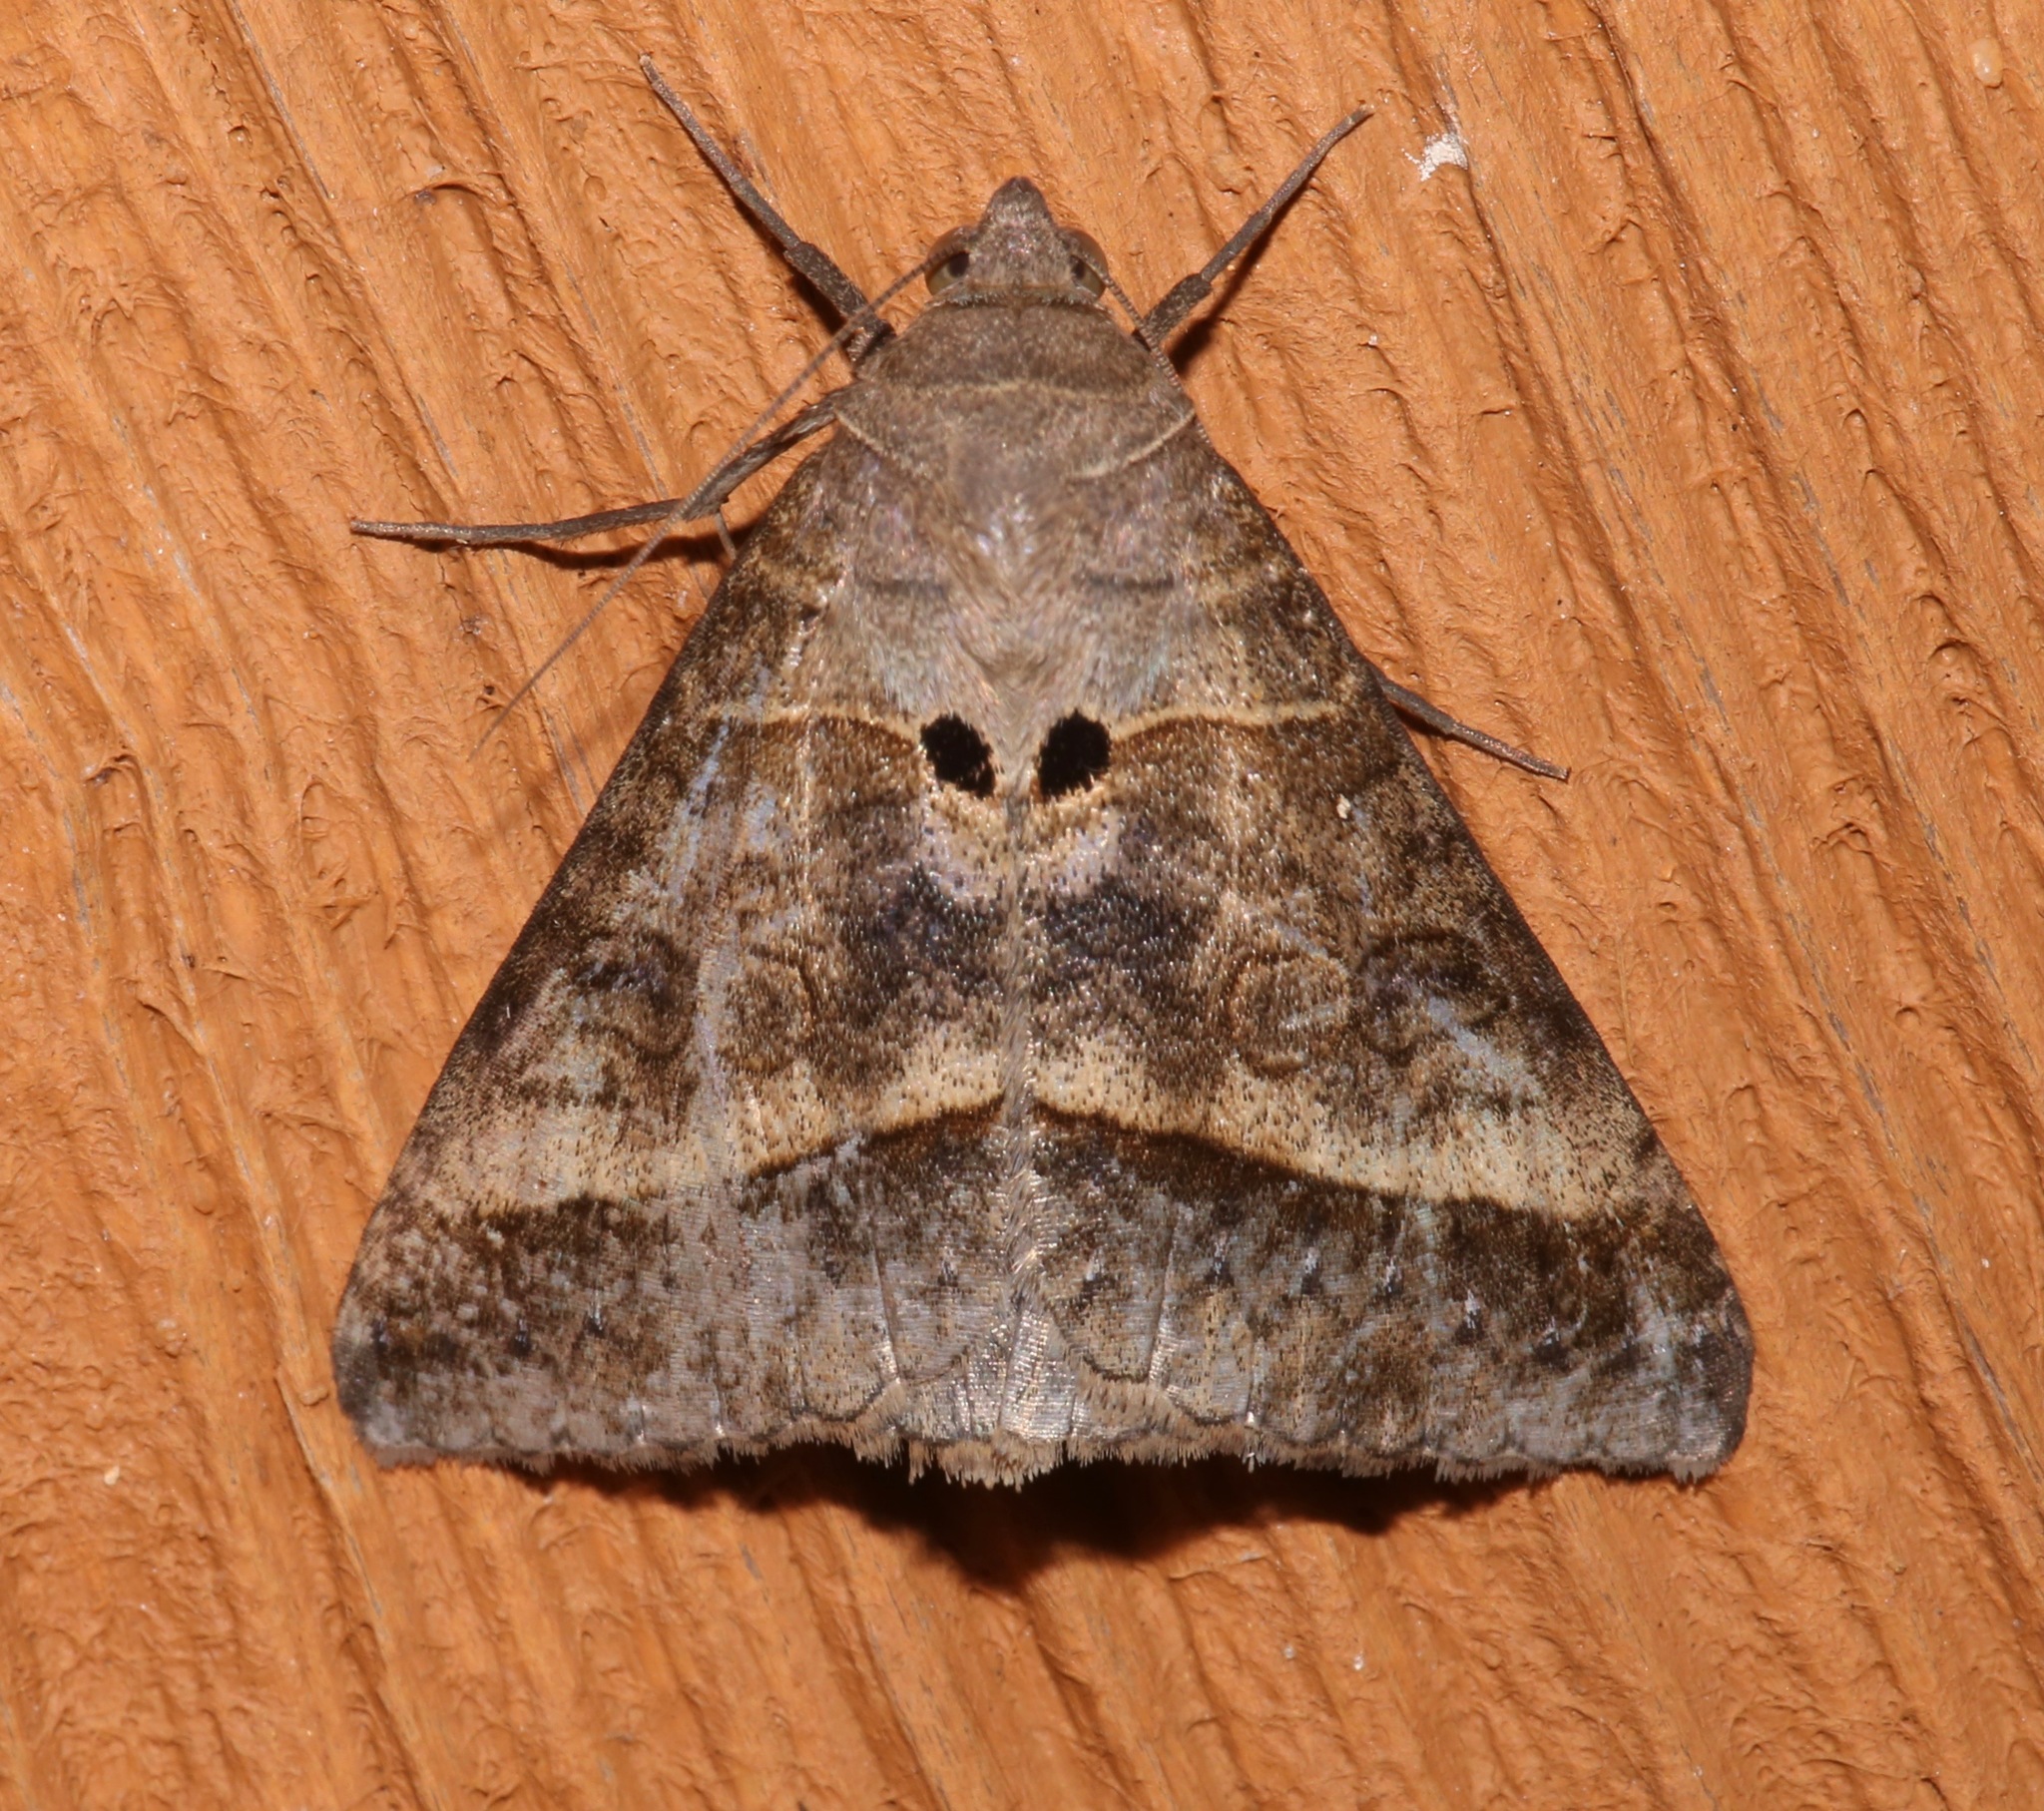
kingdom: Animalia
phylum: Arthropoda
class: Insecta
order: Lepidoptera
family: Erebidae
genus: Mocis
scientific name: Mocis latipes
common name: Striped grass looper
